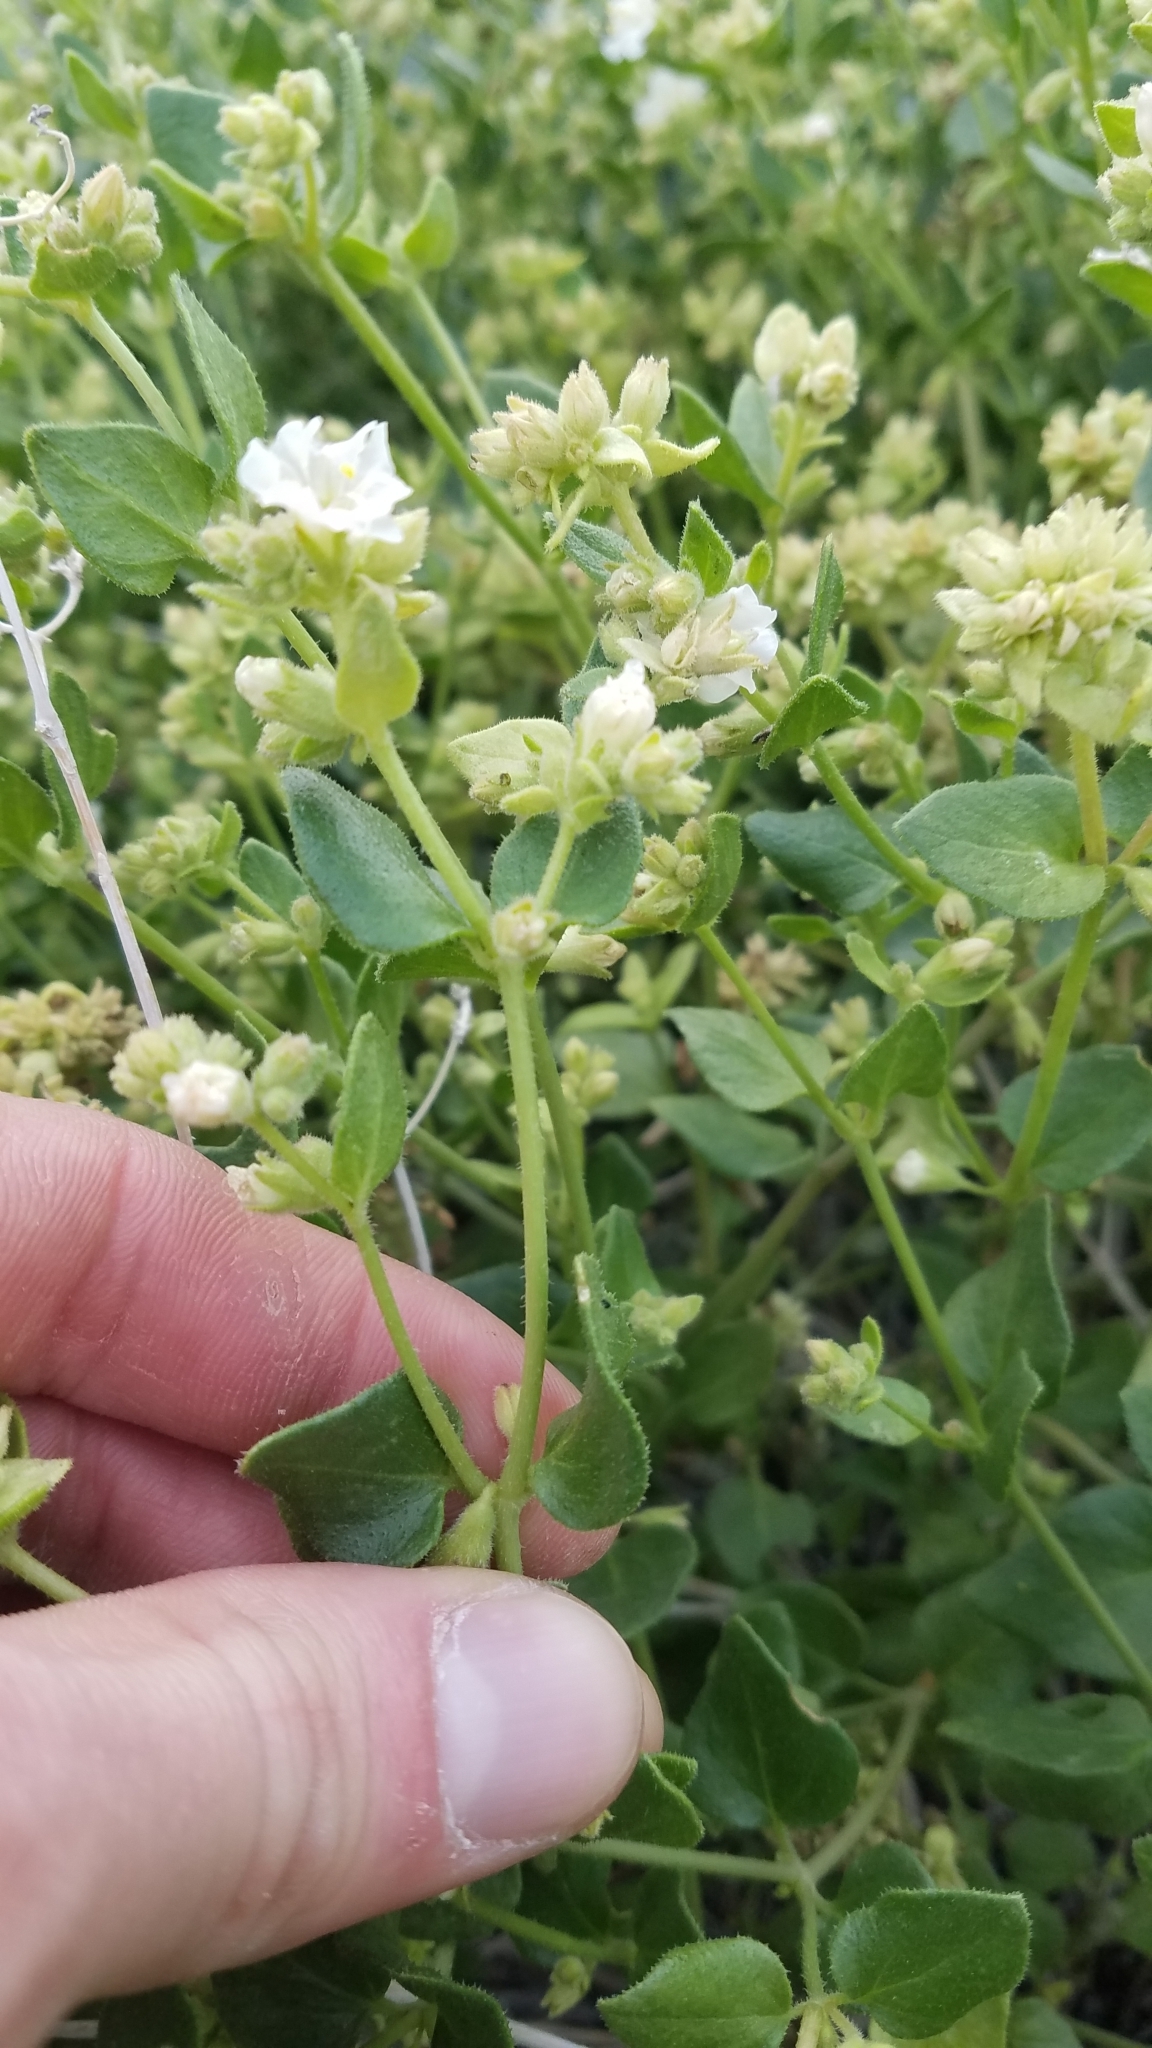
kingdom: Plantae
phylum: Tracheophyta
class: Magnoliopsida
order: Caryophyllales
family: Nyctaginaceae
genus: Mirabilis
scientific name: Mirabilis laevis
